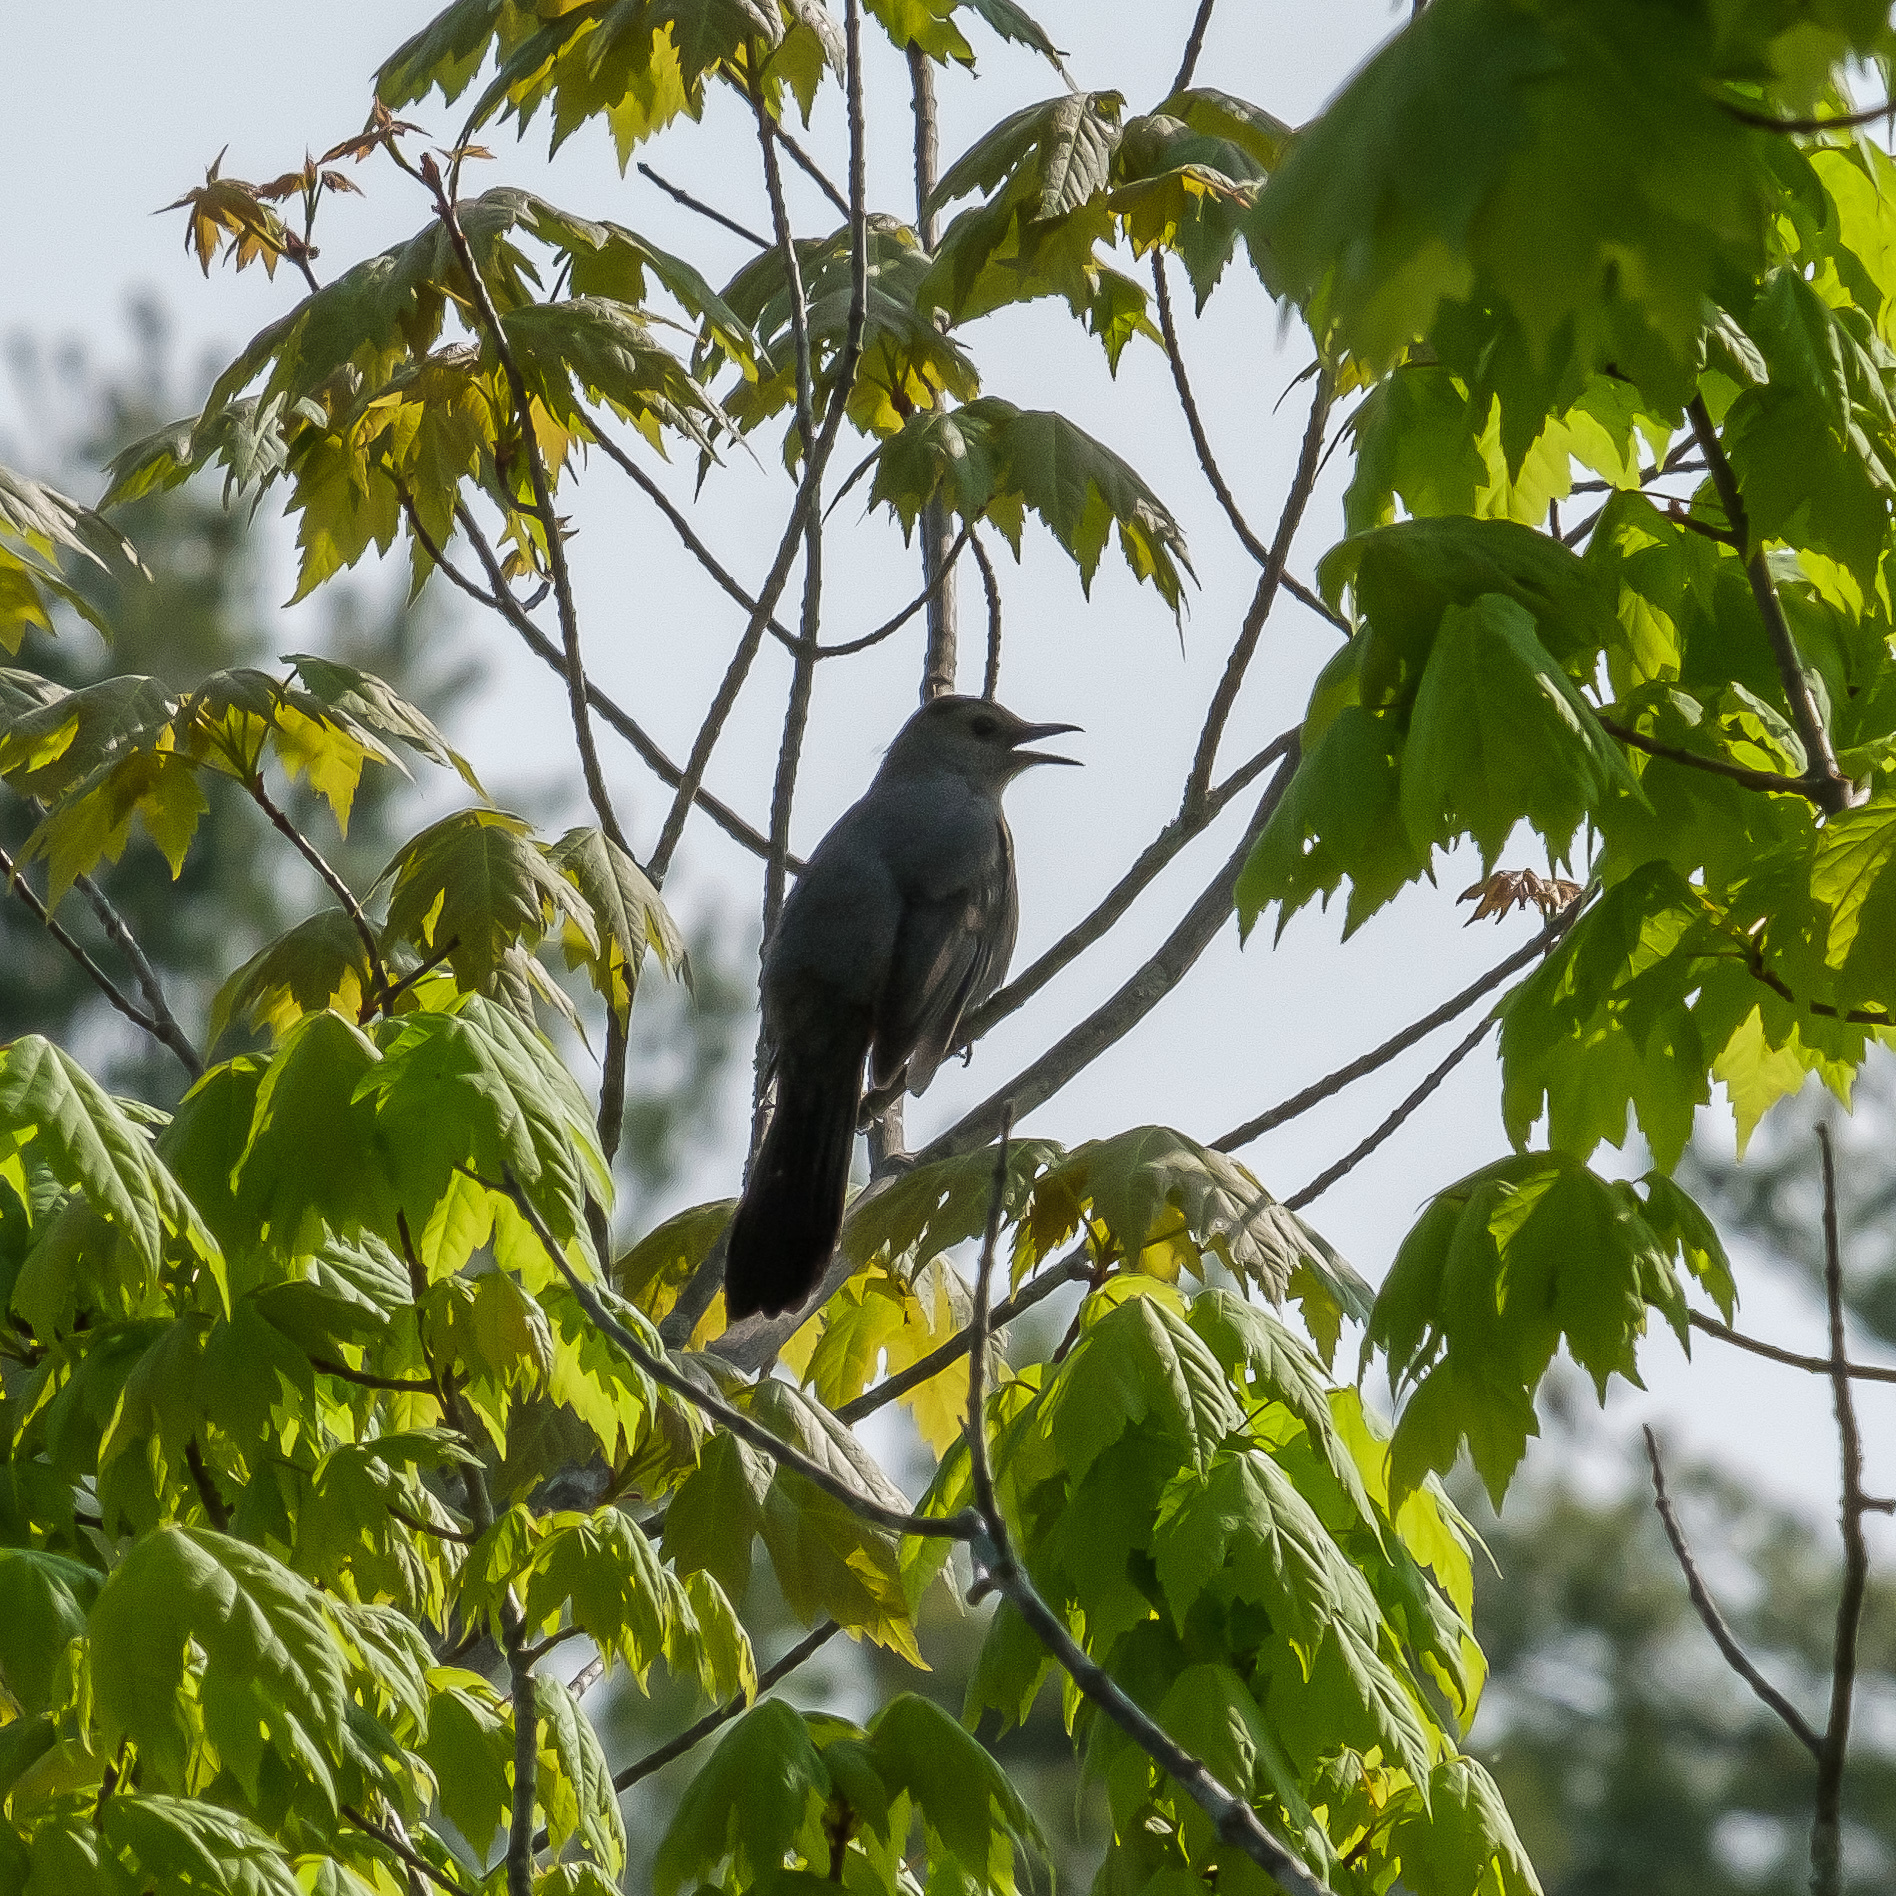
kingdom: Animalia
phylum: Chordata
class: Aves
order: Passeriformes
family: Mimidae
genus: Dumetella
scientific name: Dumetella carolinensis
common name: Gray catbird
